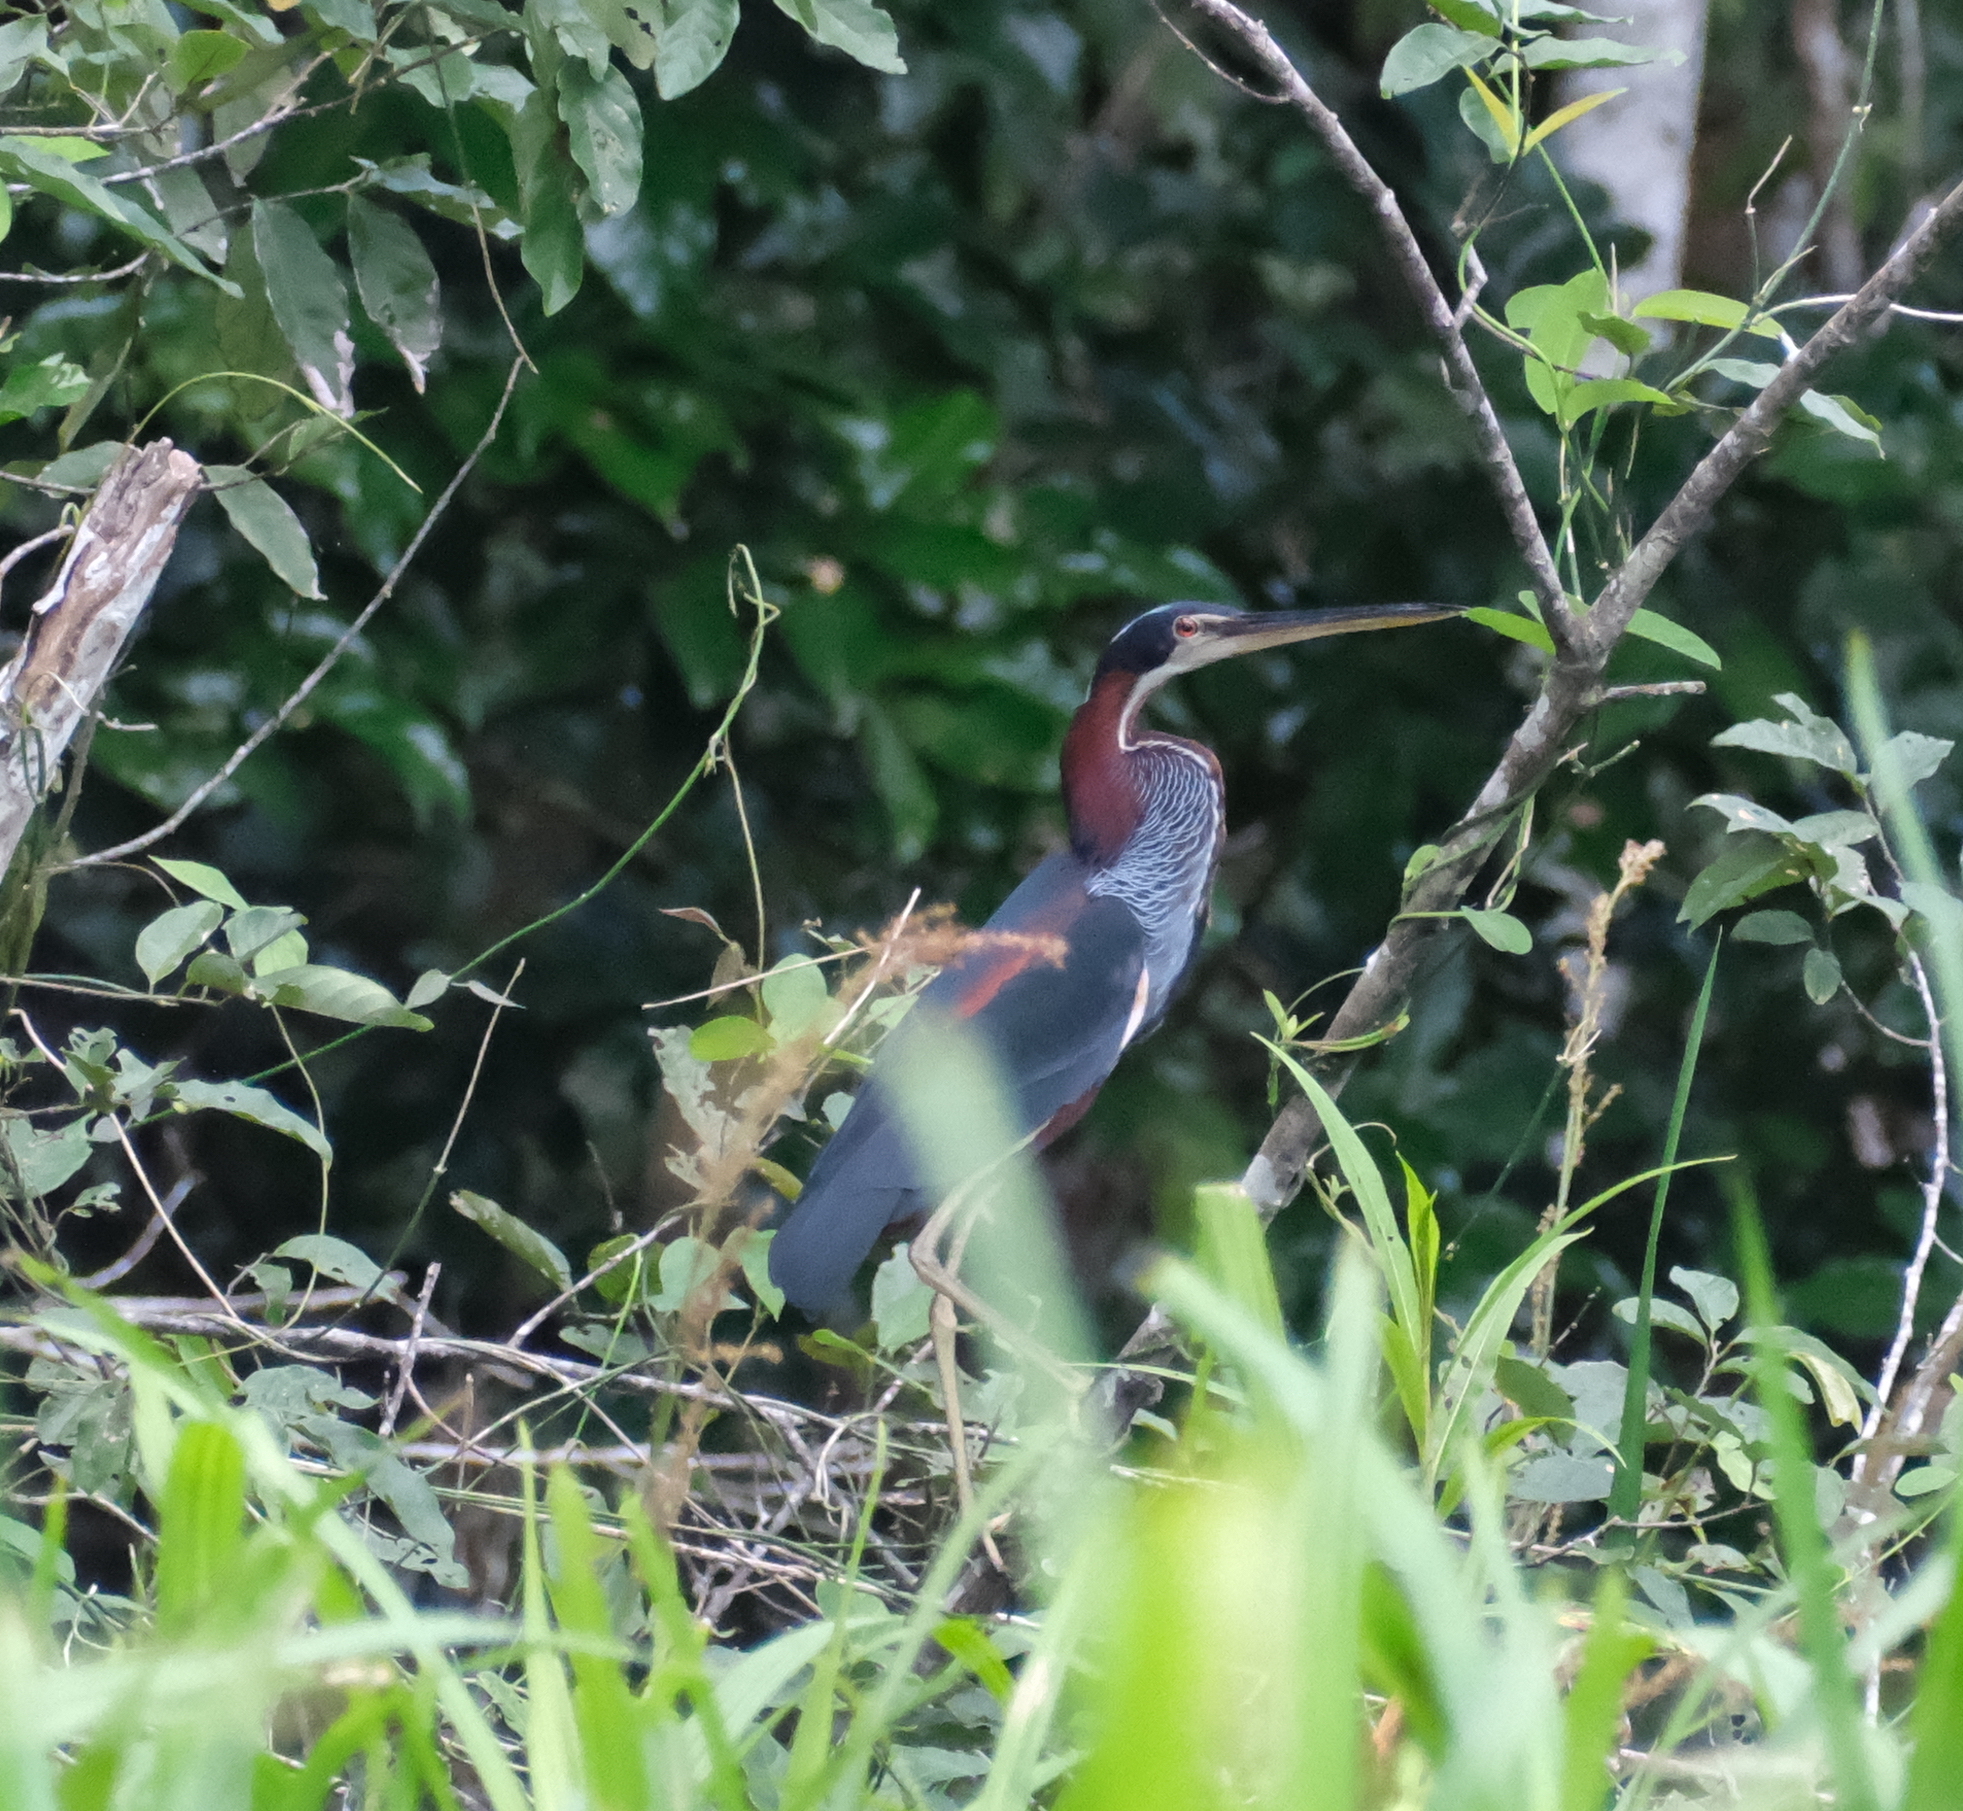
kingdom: Animalia
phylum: Chordata
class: Aves
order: Pelecaniformes
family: Ardeidae
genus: Agamia
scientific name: Agamia agami
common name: Agami heron
